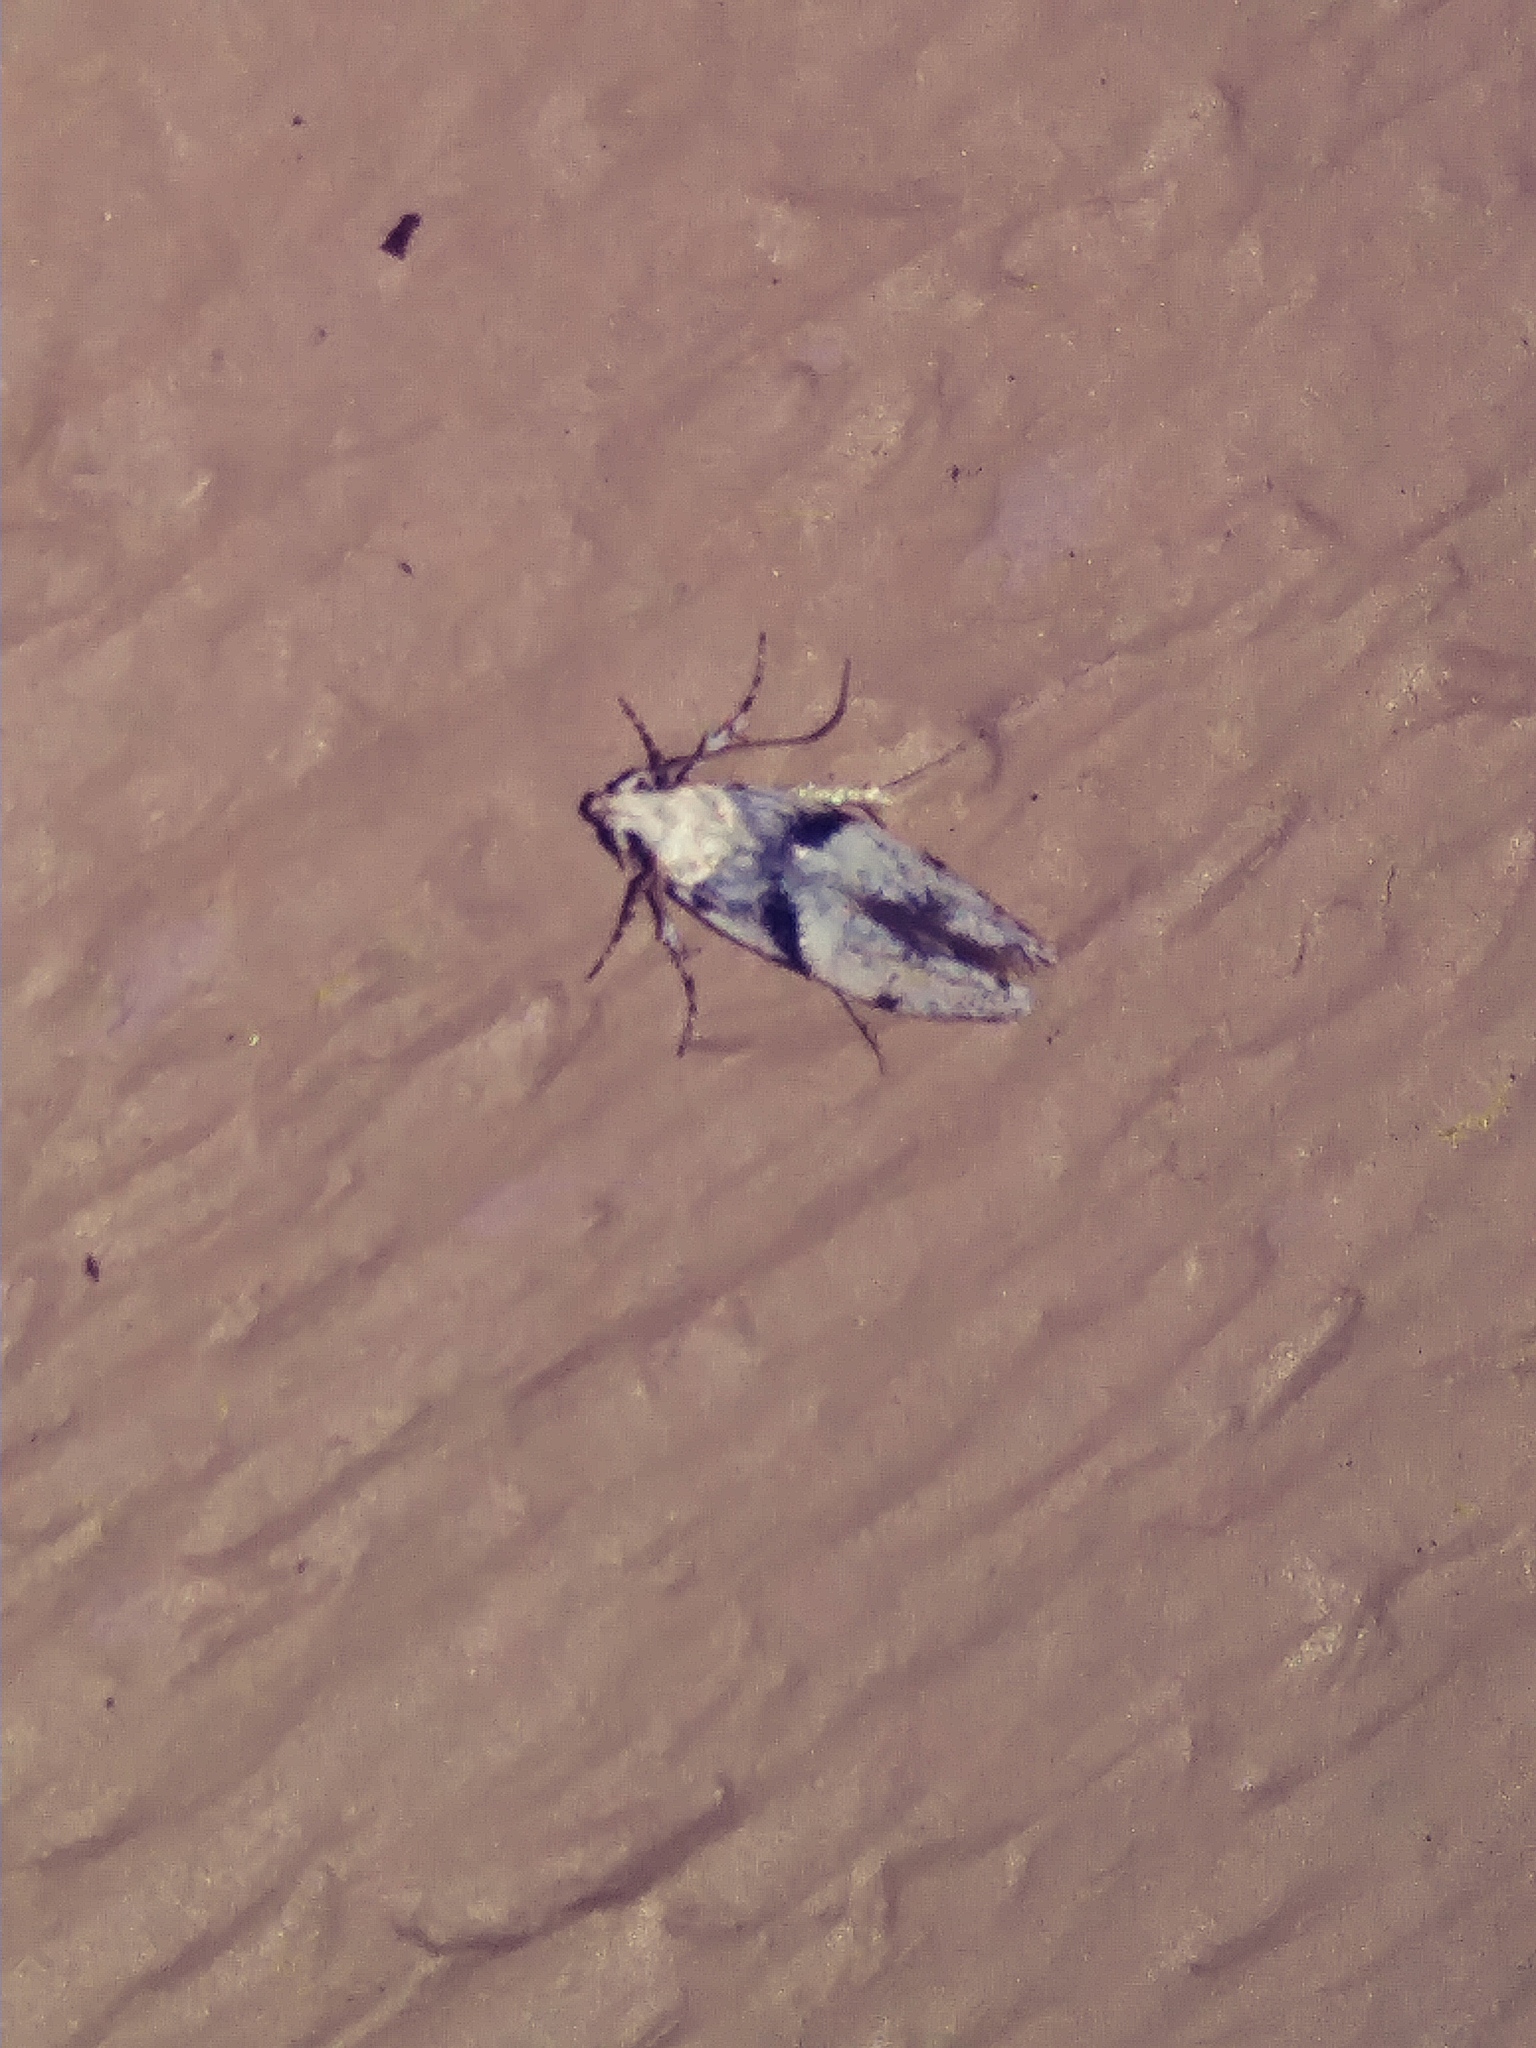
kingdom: Animalia
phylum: Arthropoda
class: Insecta
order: Lepidoptera
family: Gelechiidae
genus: Arogalea
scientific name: Arogalea cristifasciella
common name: White stripe-backed moth
